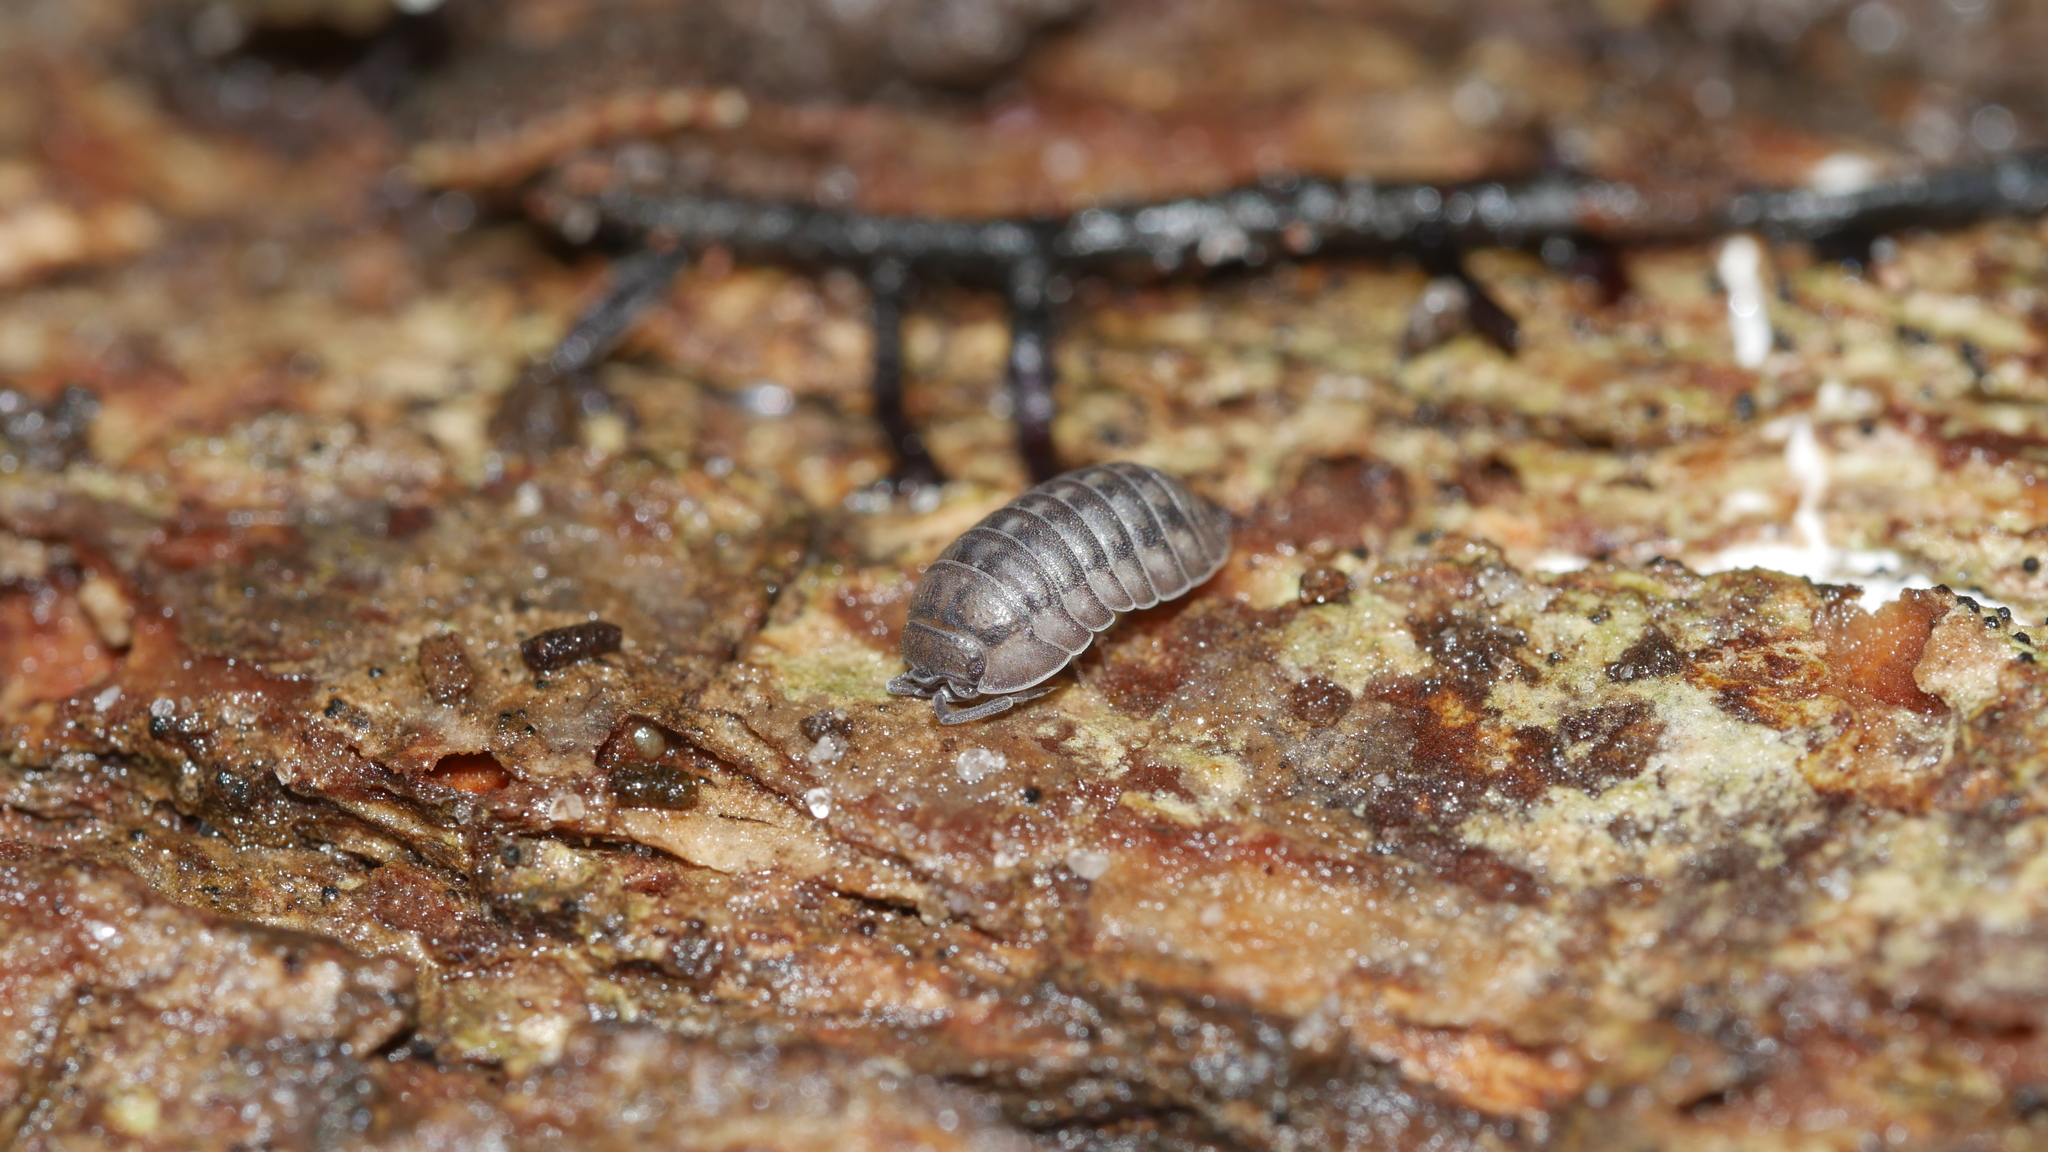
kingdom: Animalia
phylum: Arthropoda
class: Malacostraca
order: Isopoda
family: Armadillidiidae
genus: Armadillidium
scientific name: Armadillidium nasatum
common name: Isopod
